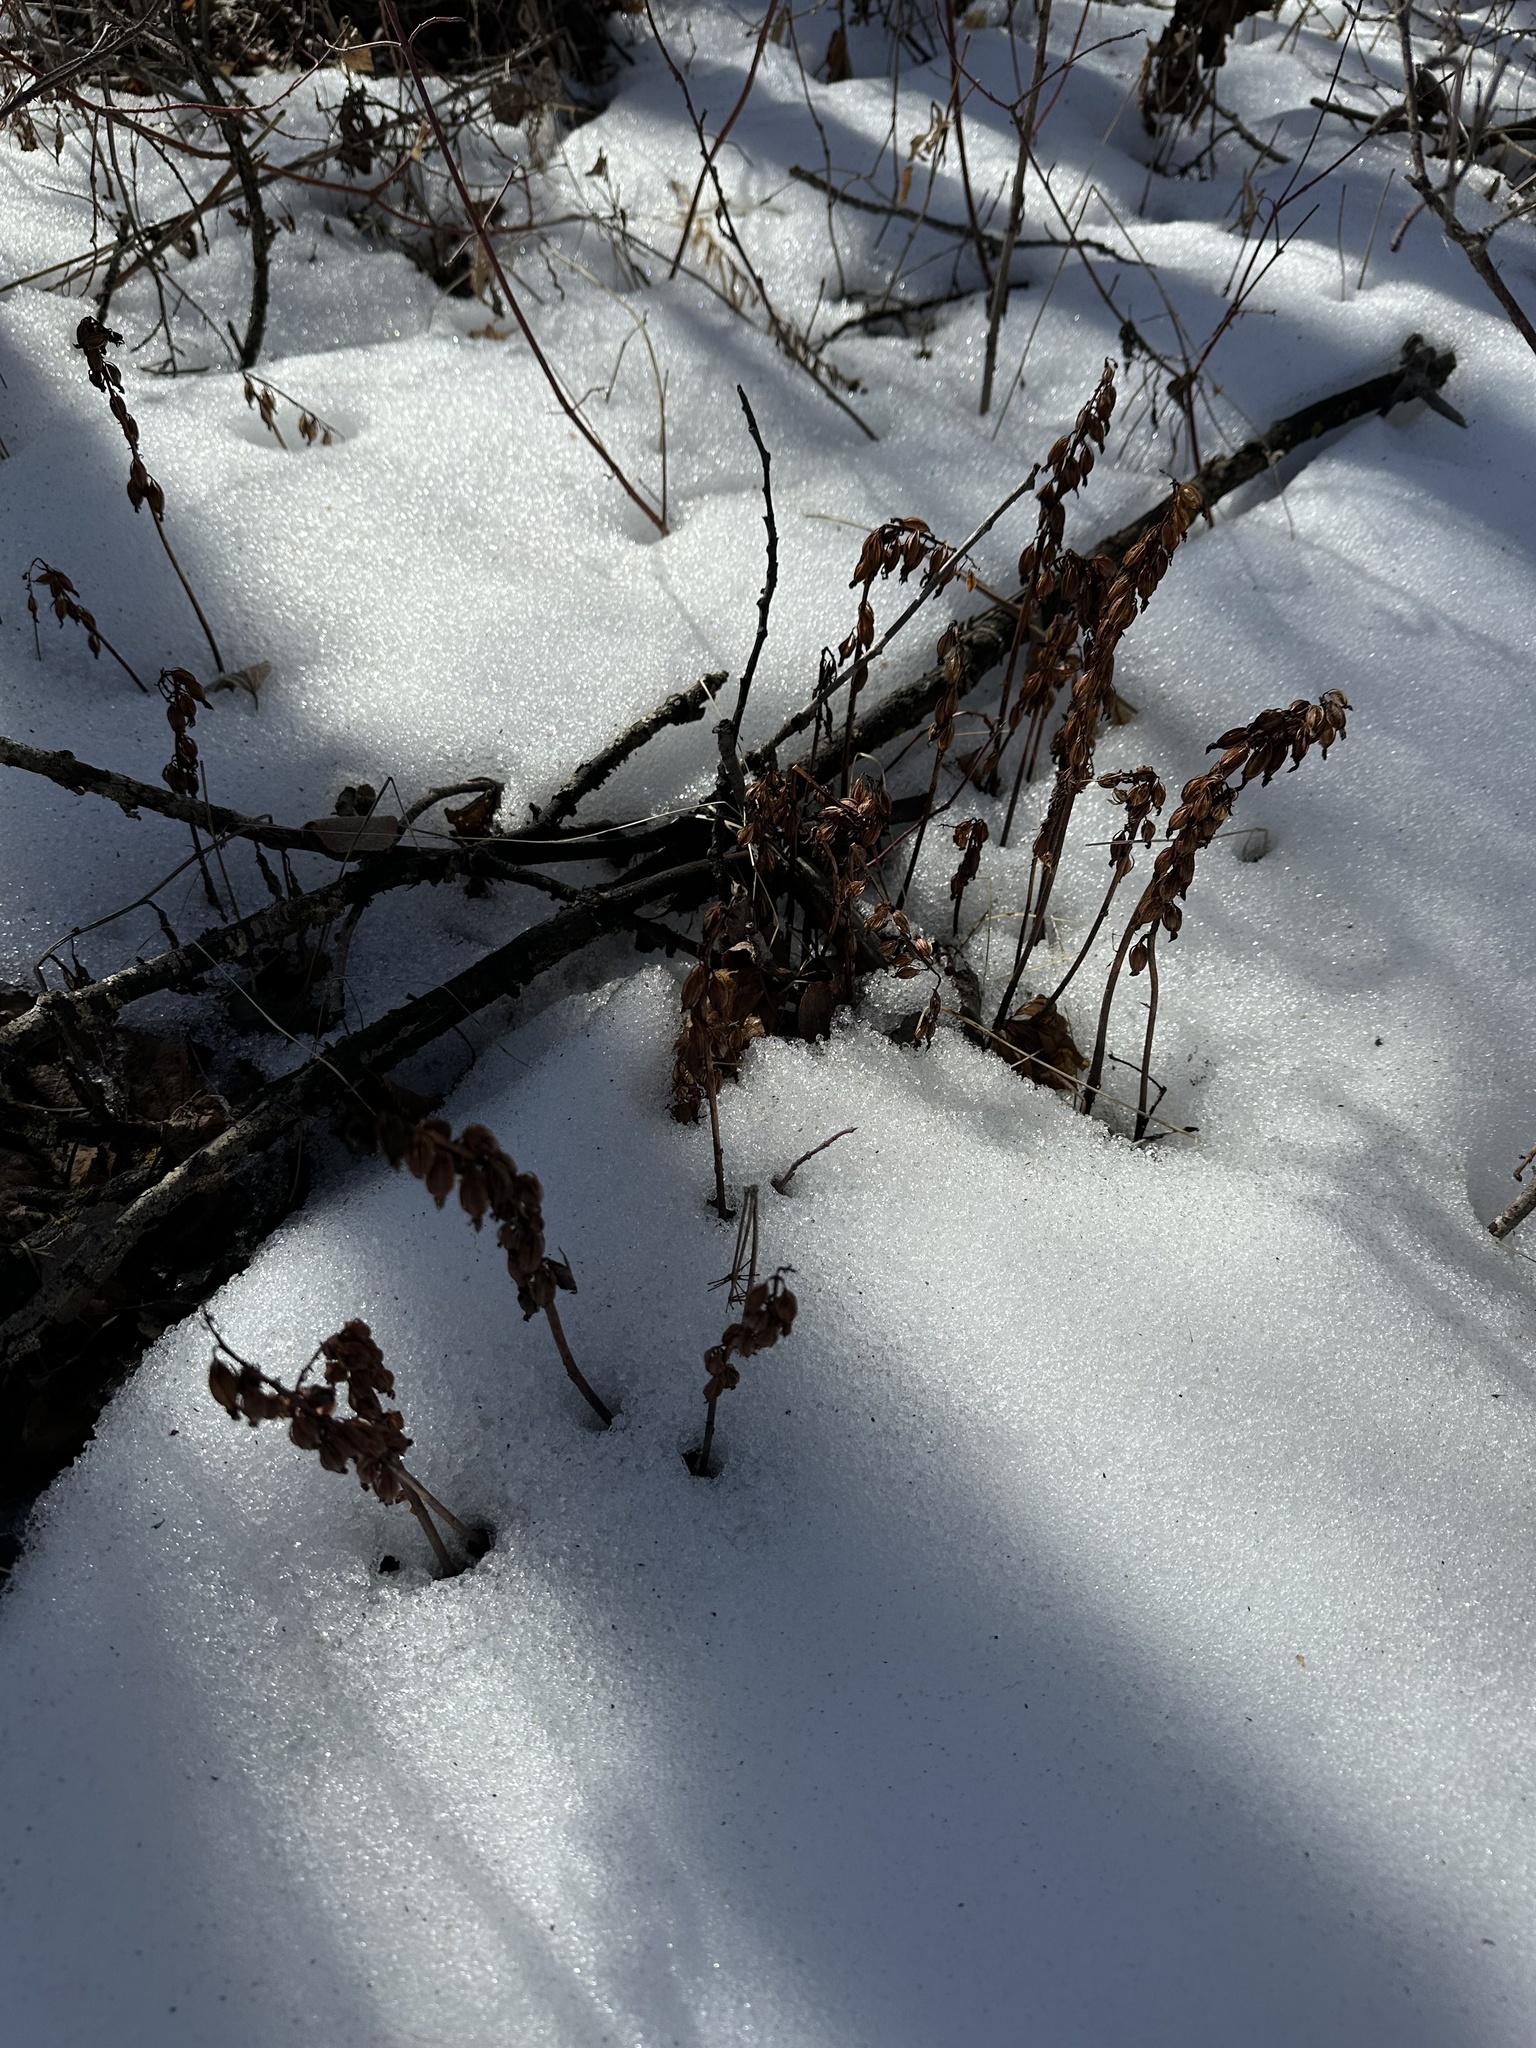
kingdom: Plantae
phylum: Tracheophyta
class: Liliopsida
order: Asparagales
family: Orchidaceae
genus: Corallorhiza
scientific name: Corallorhiza maculata
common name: Spotted coralroot
